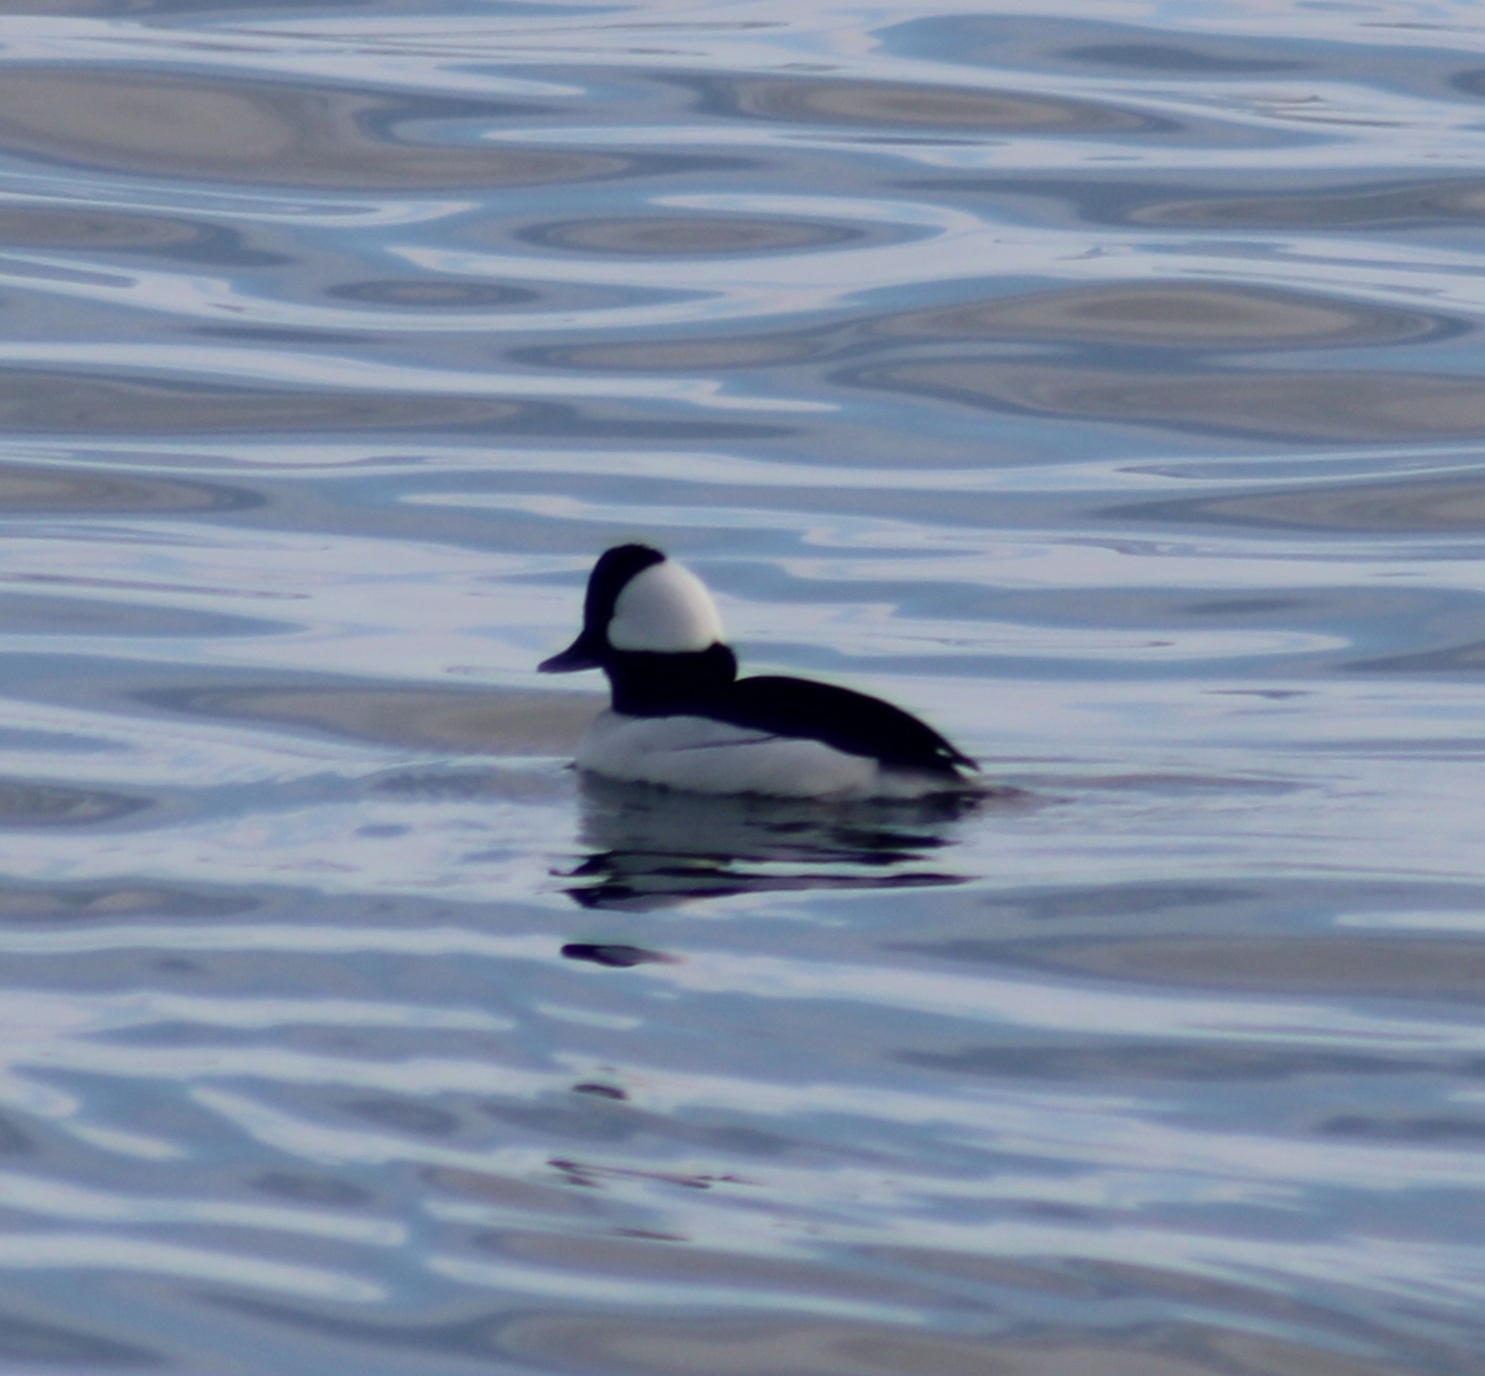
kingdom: Animalia
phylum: Chordata
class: Aves
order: Anseriformes
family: Anatidae
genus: Bucephala
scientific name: Bucephala albeola
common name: Bufflehead
